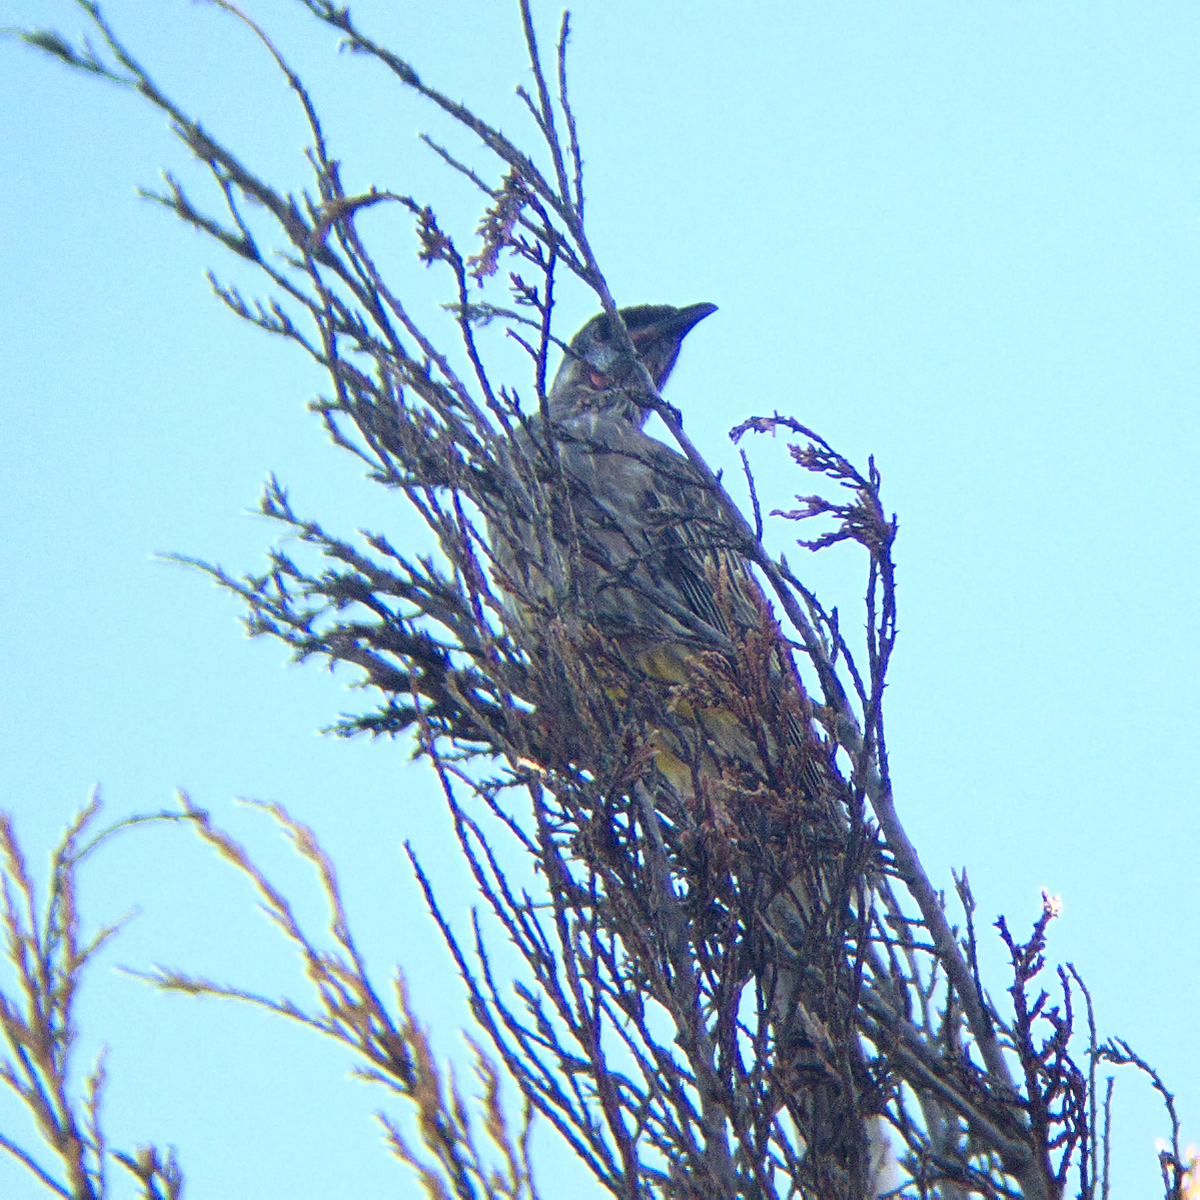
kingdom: Animalia
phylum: Chordata
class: Aves
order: Passeriformes
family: Meliphagidae
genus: Anthochaera
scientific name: Anthochaera carunculata
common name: Red wattlebird
